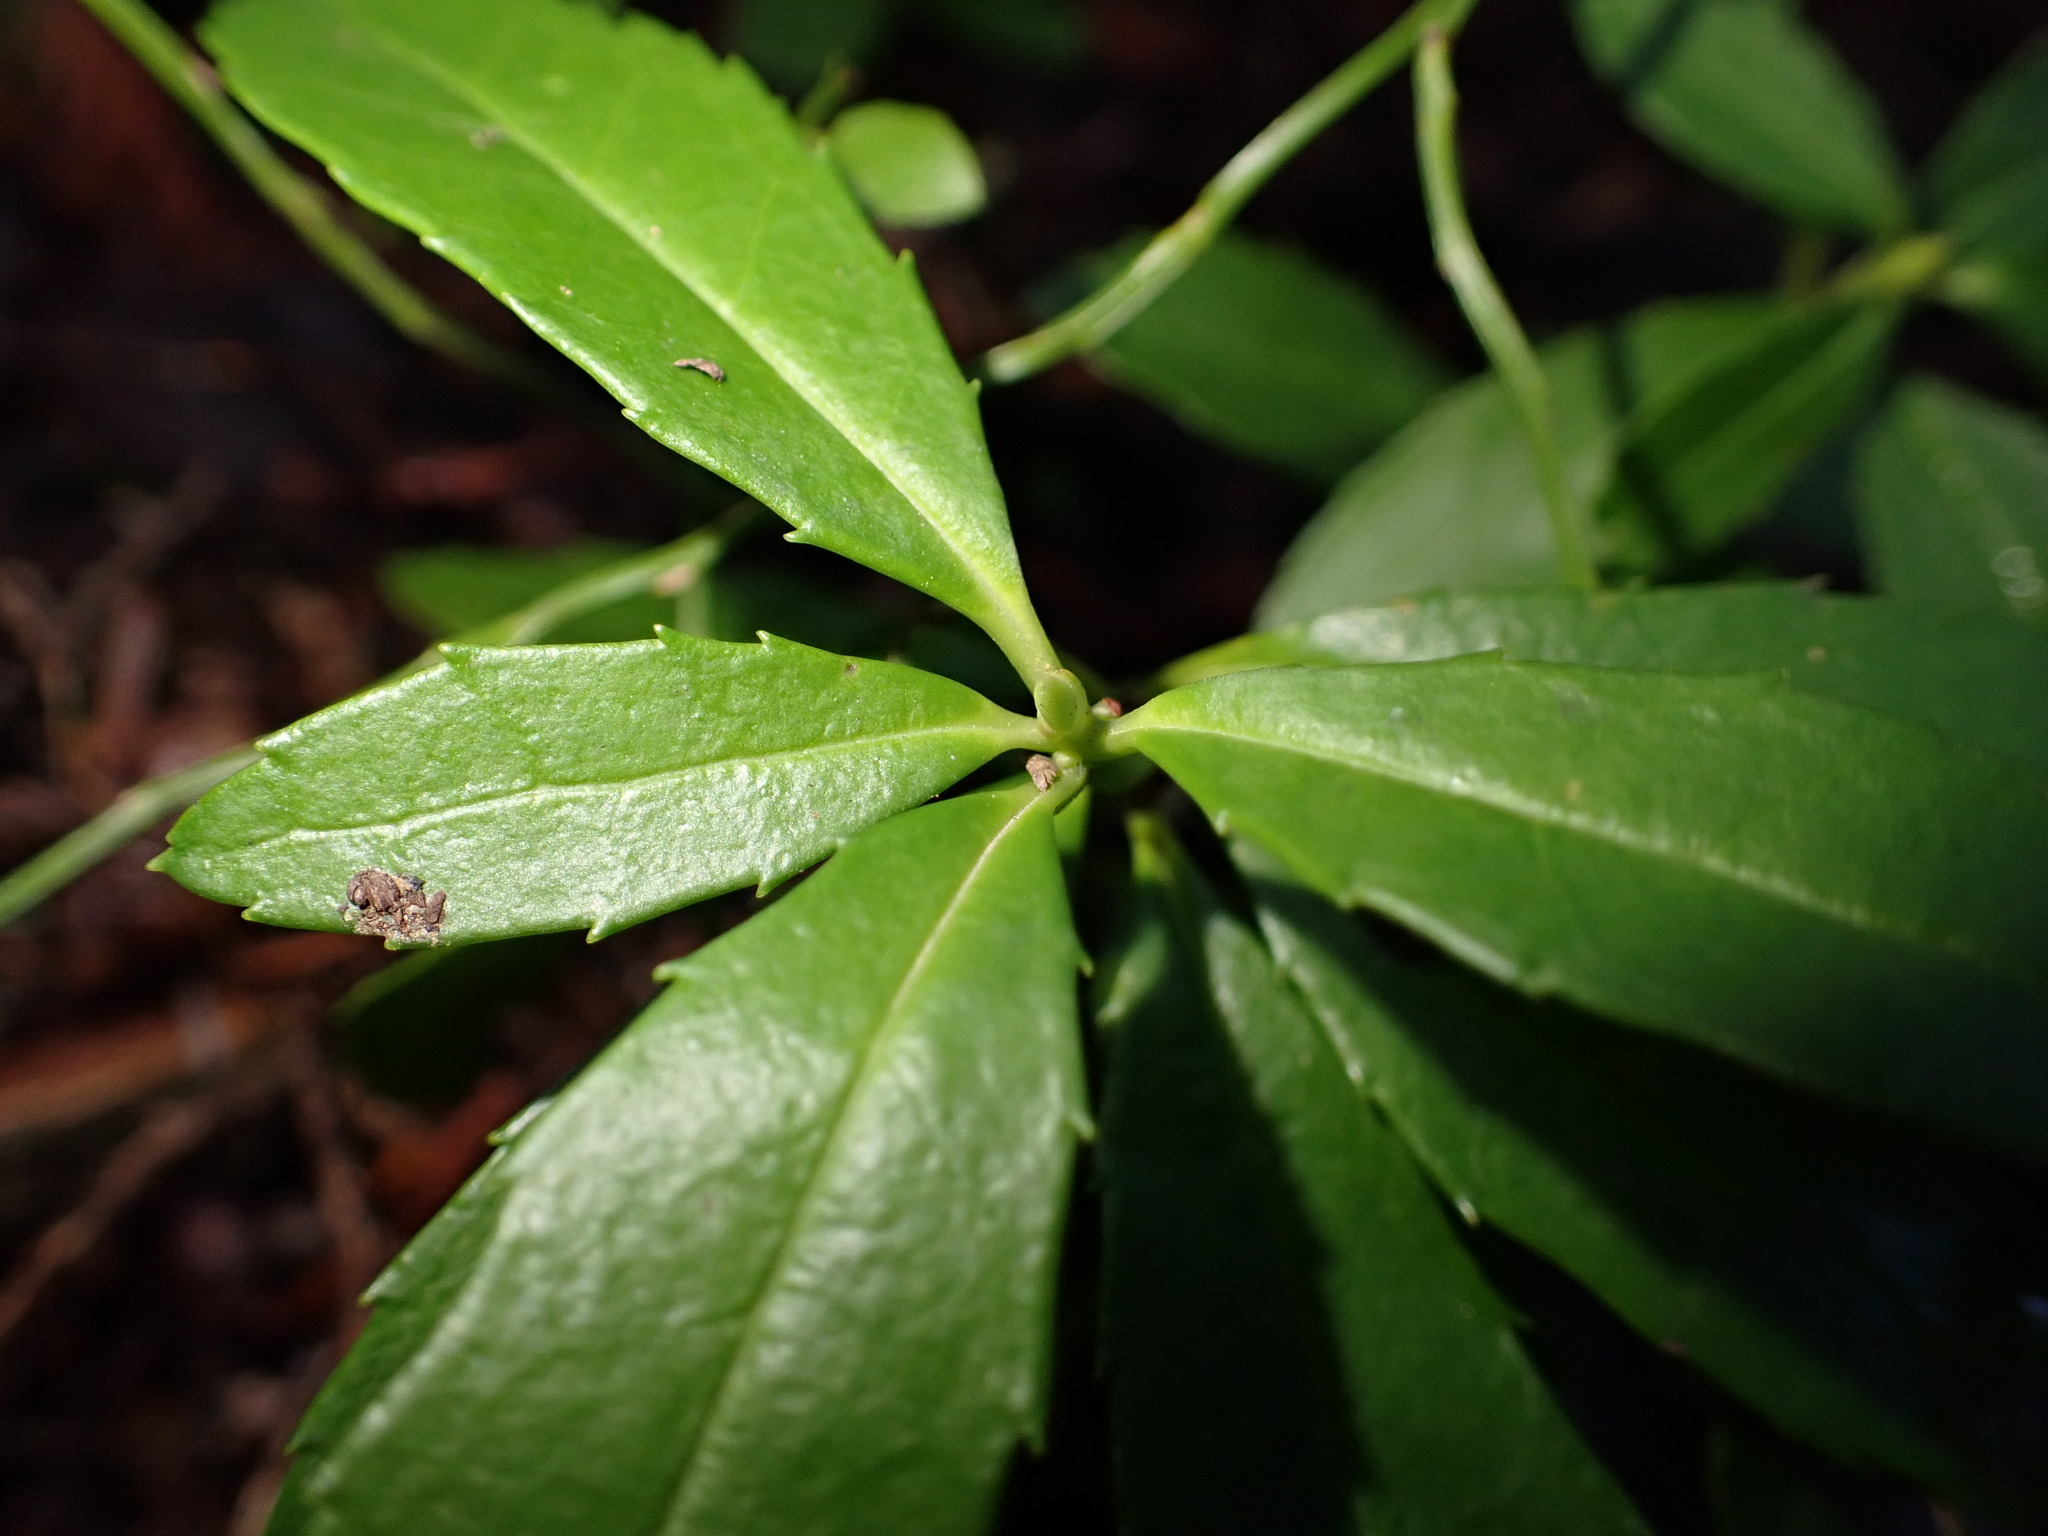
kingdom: Plantae
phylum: Tracheophyta
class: Magnoliopsida
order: Ericales
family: Ericaceae
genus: Chimaphila
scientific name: Chimaphila umbellata
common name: Pipsissewa
